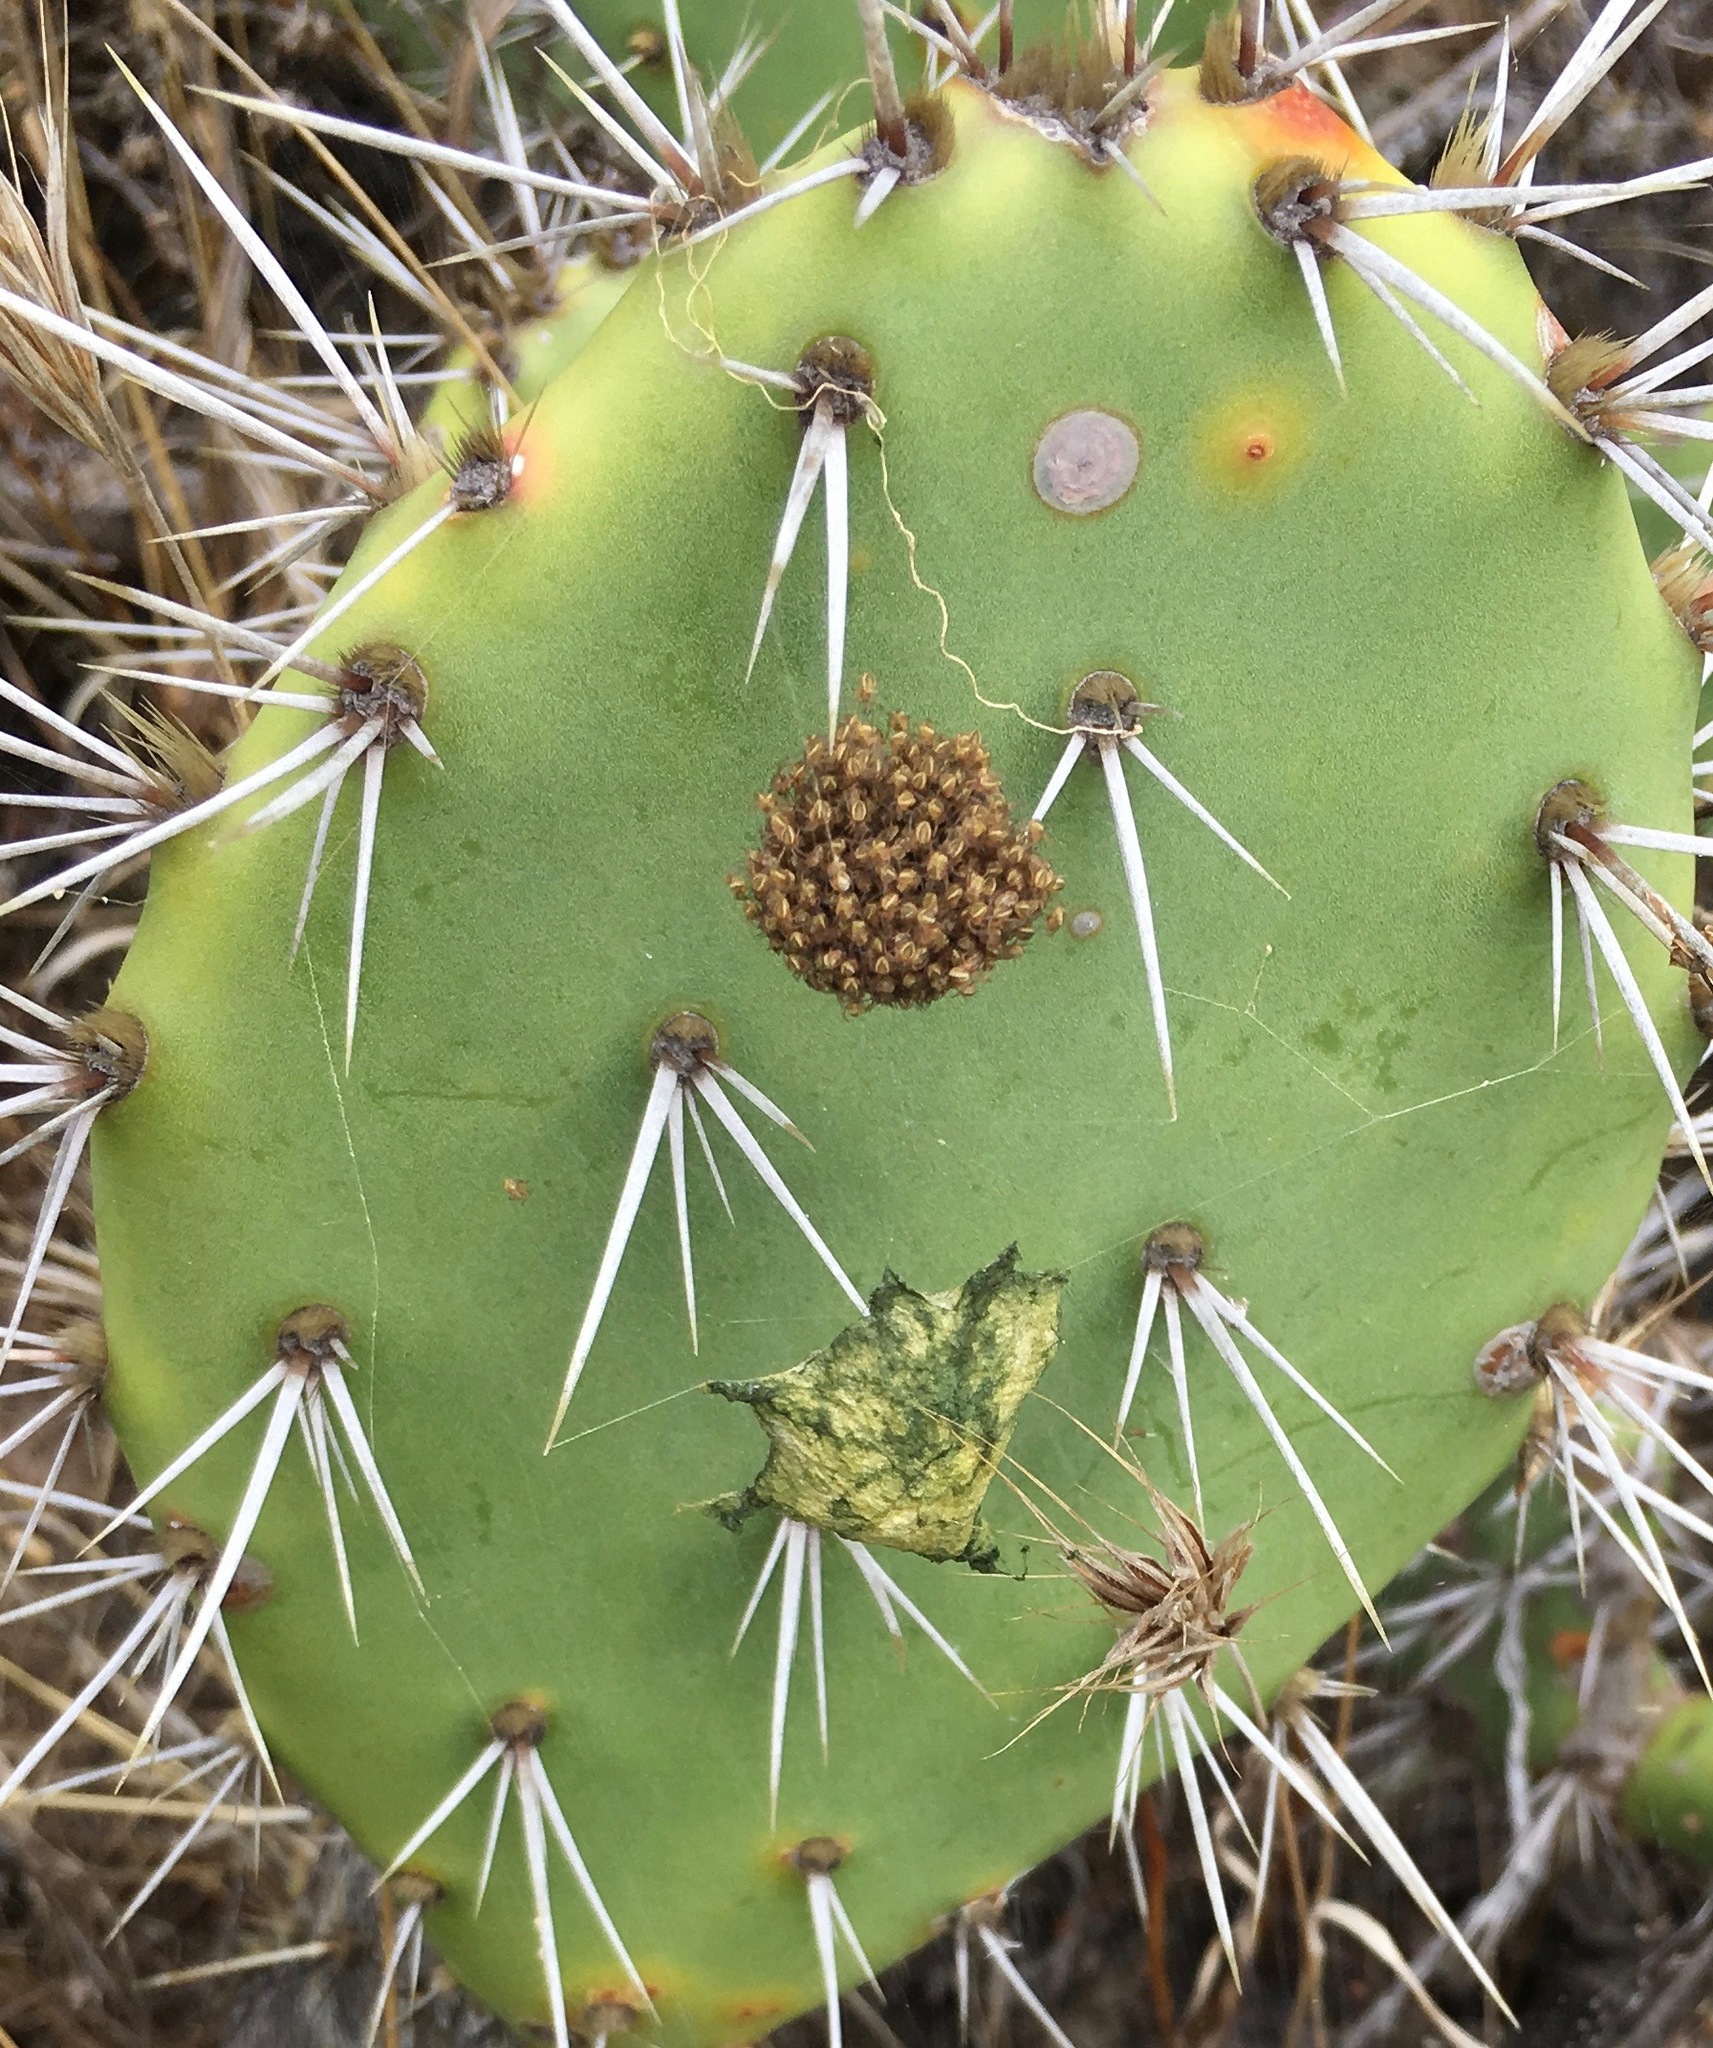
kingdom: Animalia
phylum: Arthropoda
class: Arachnida
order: Araneae
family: Araneidae
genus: Argiope
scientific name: Argiope argentata
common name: Orb weavers
